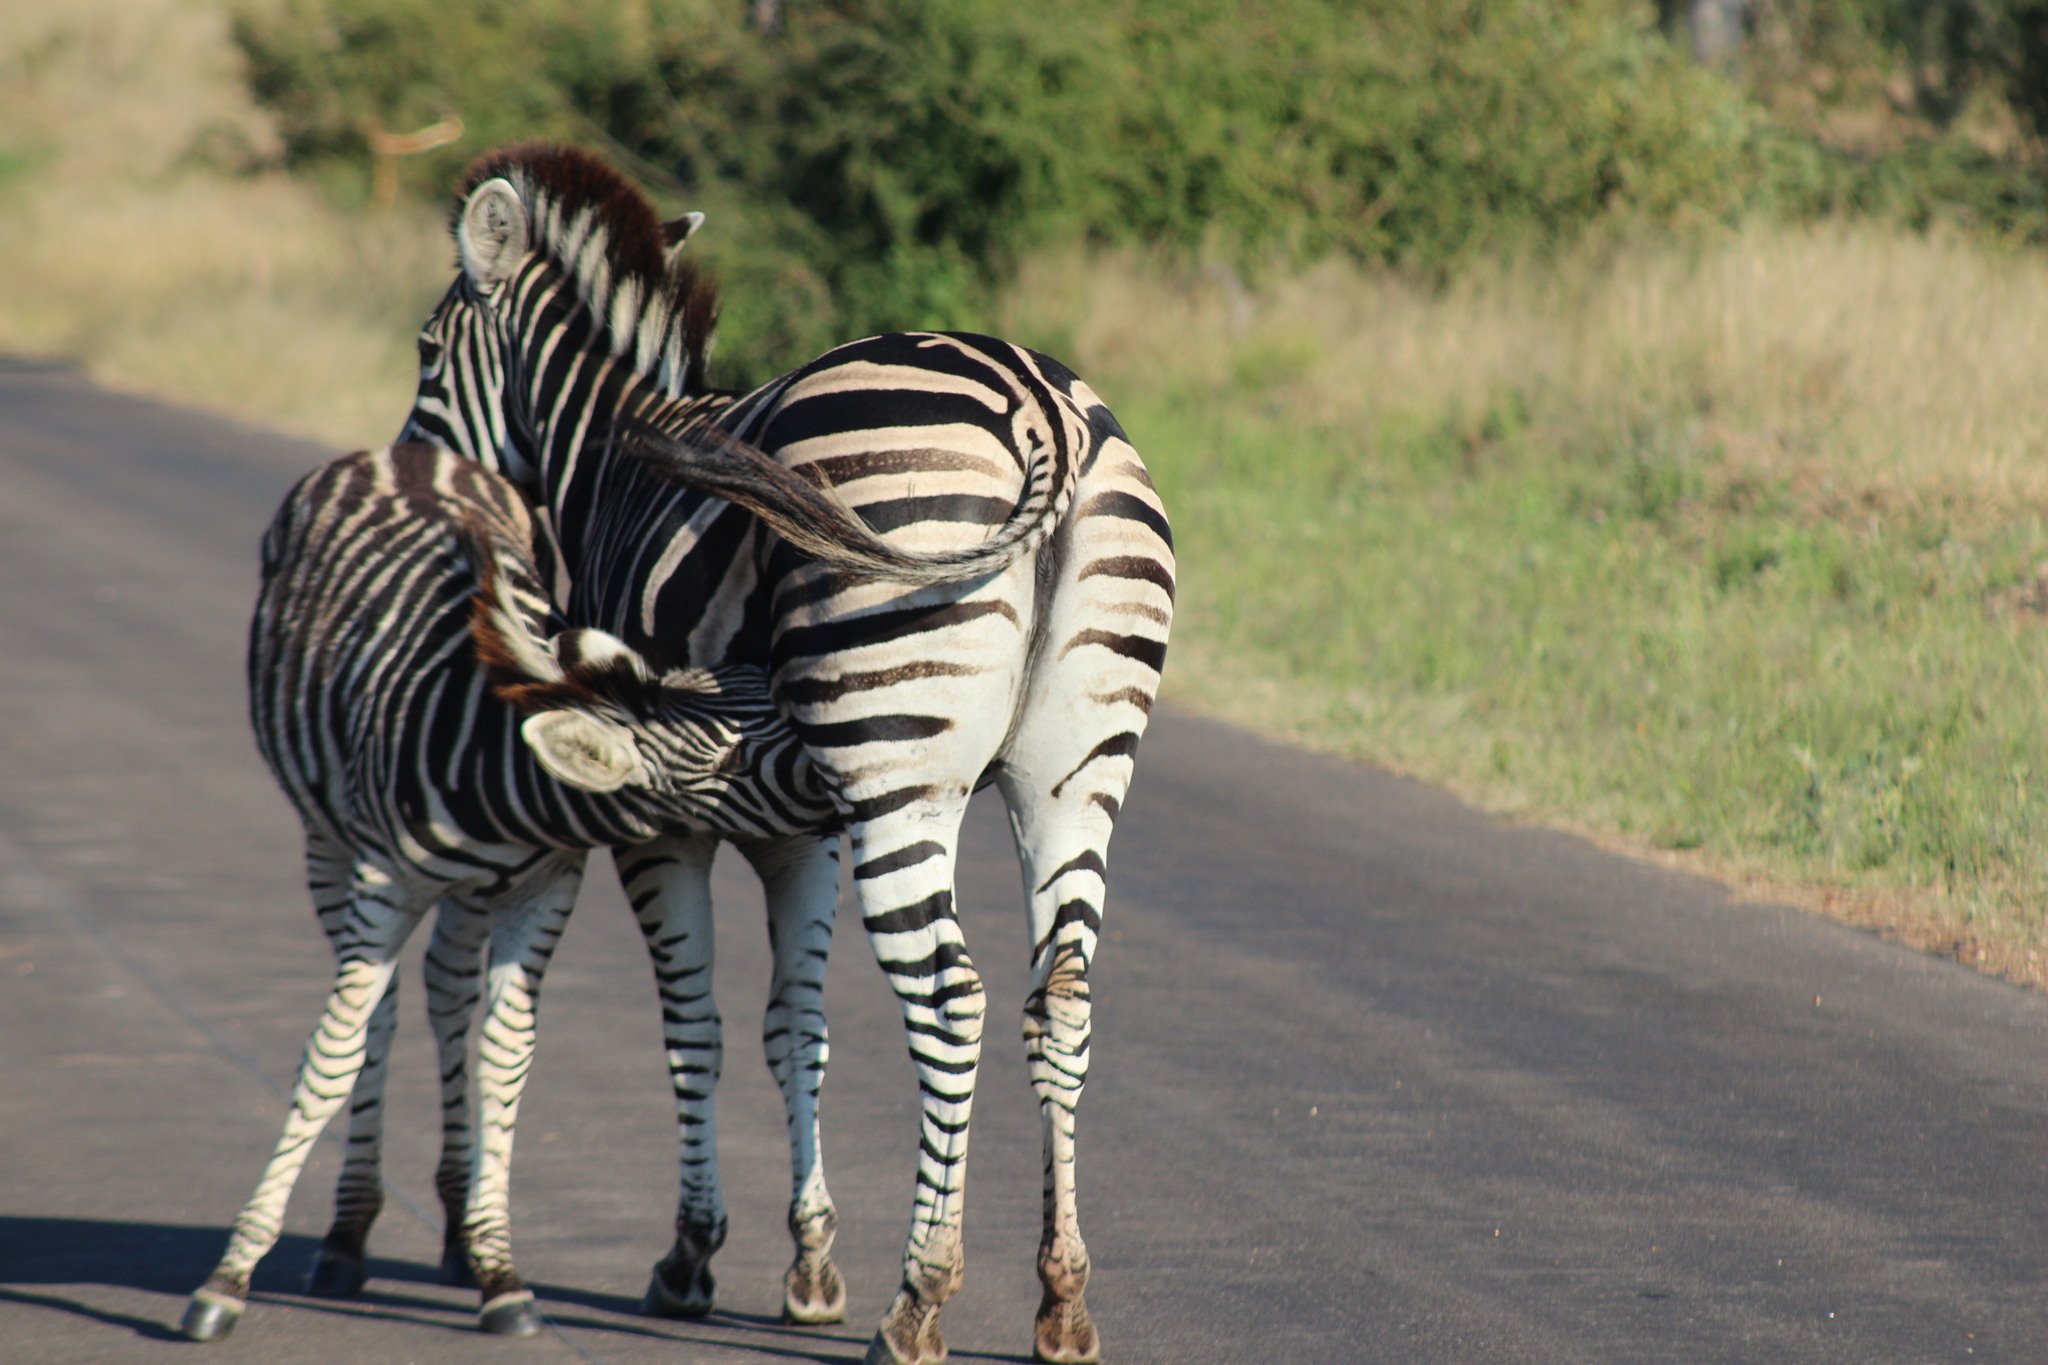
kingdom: Animalia
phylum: Chordata
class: Mammalia
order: Perissodactyla
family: Equidae
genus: Equus
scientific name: Equus quagga
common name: Plains zebra
